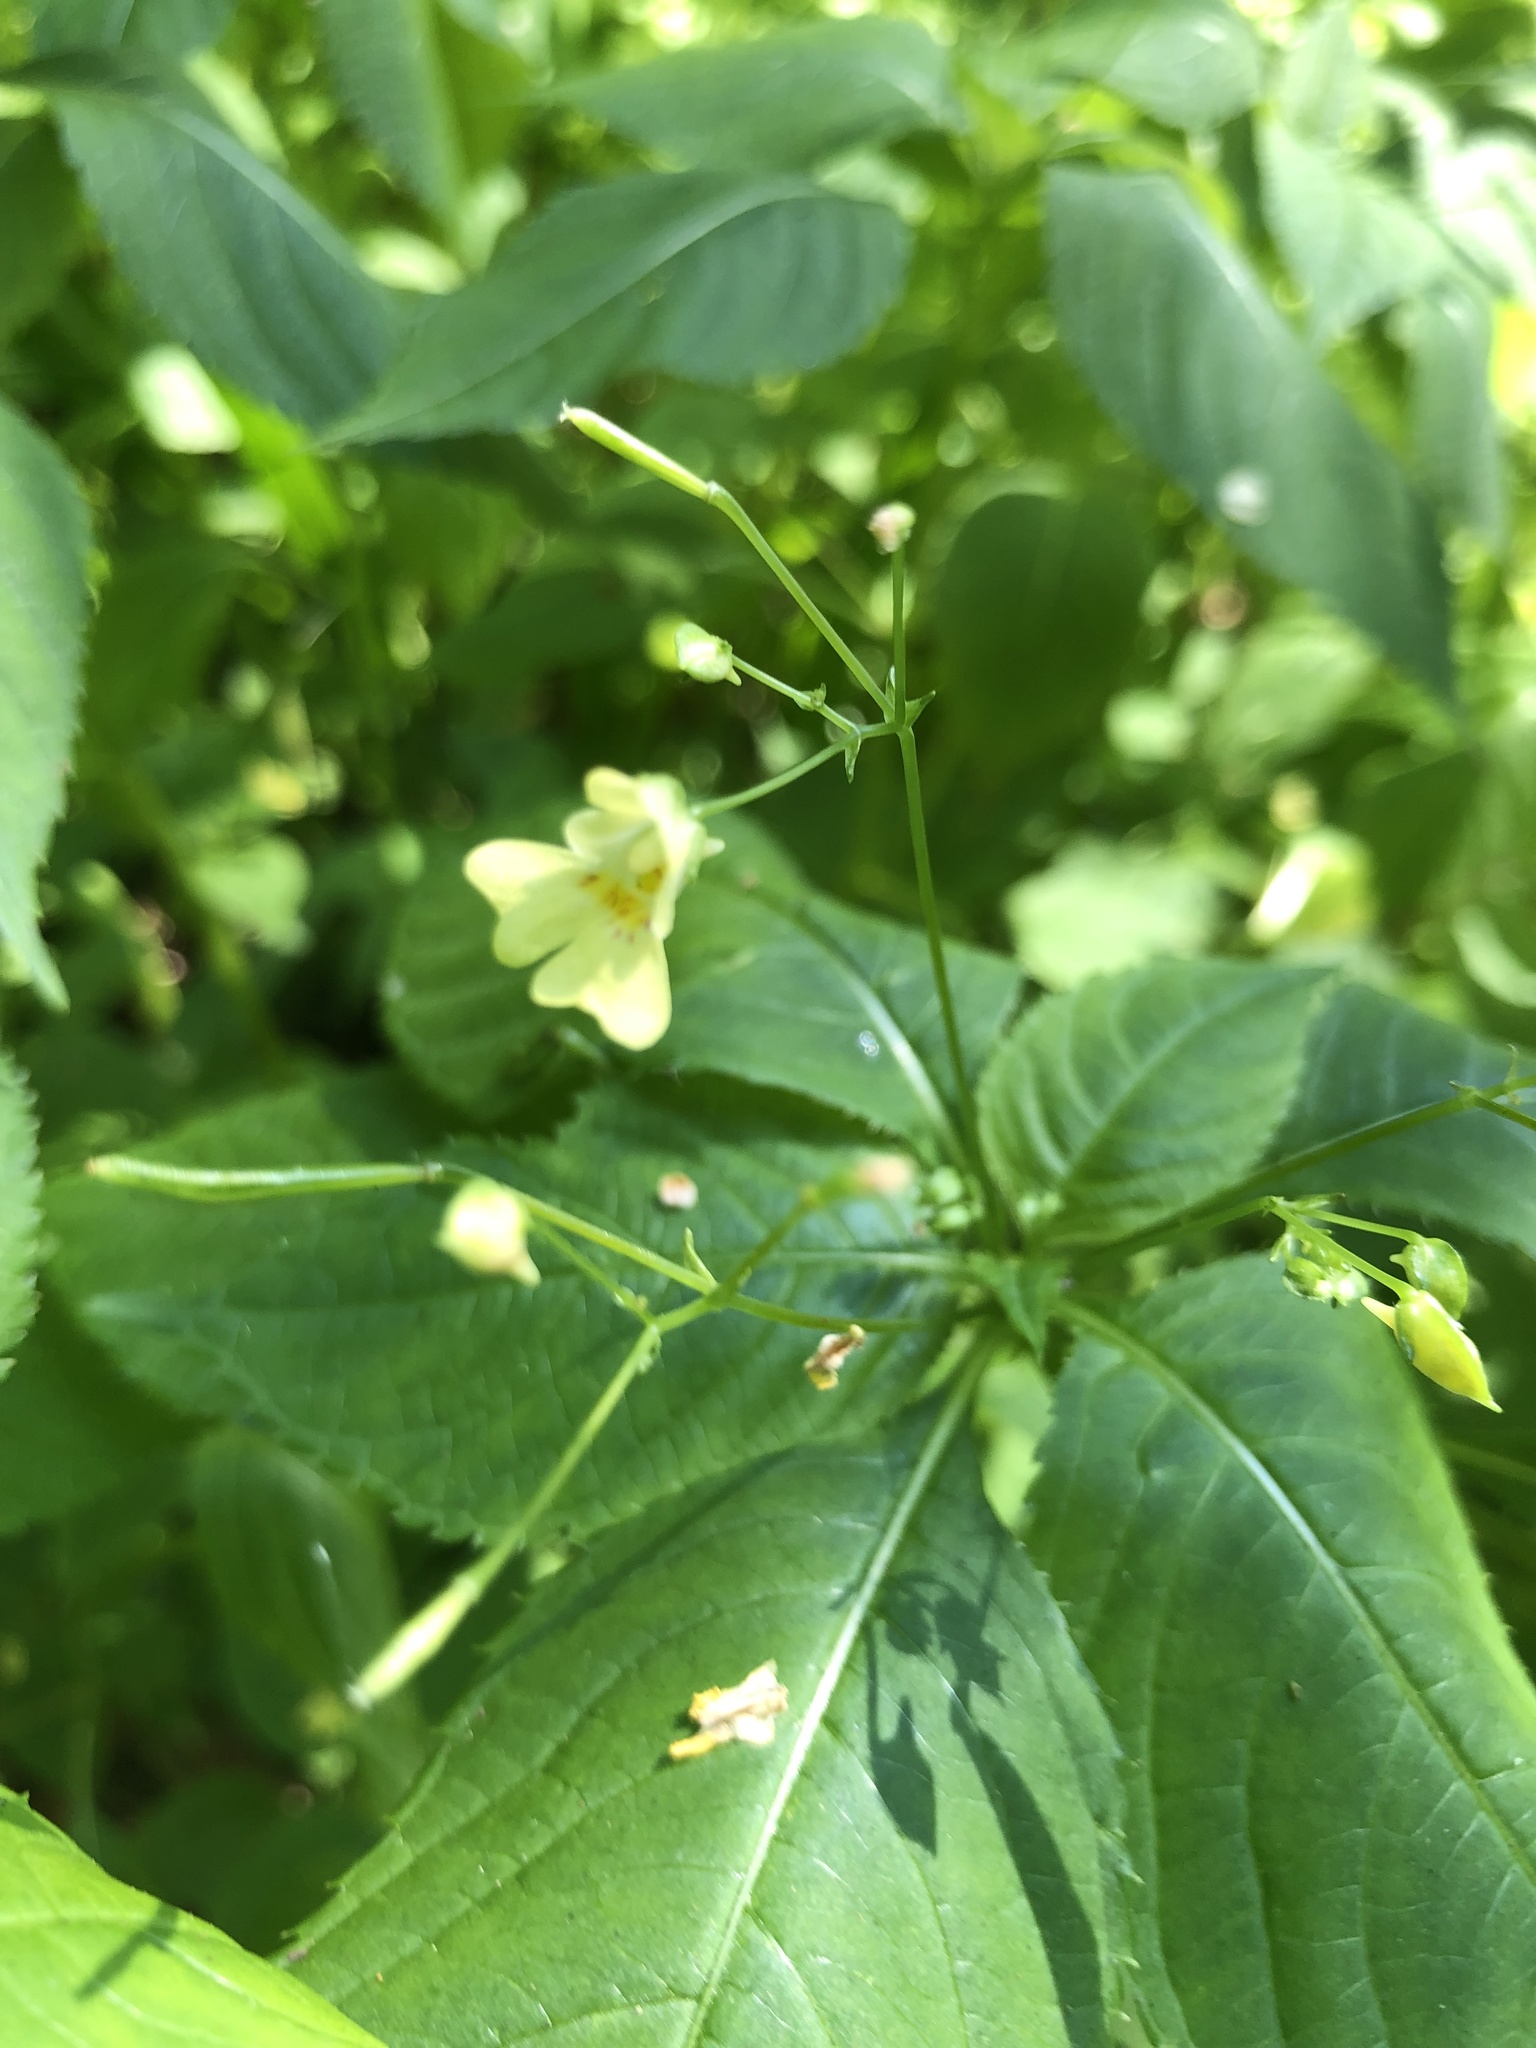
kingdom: Plantae
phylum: Tracheophyta
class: Magnoliopsida
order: Ericales
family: Balsaminaceae
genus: Impatiens
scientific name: Impatiens parviflora
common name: Small balsam
